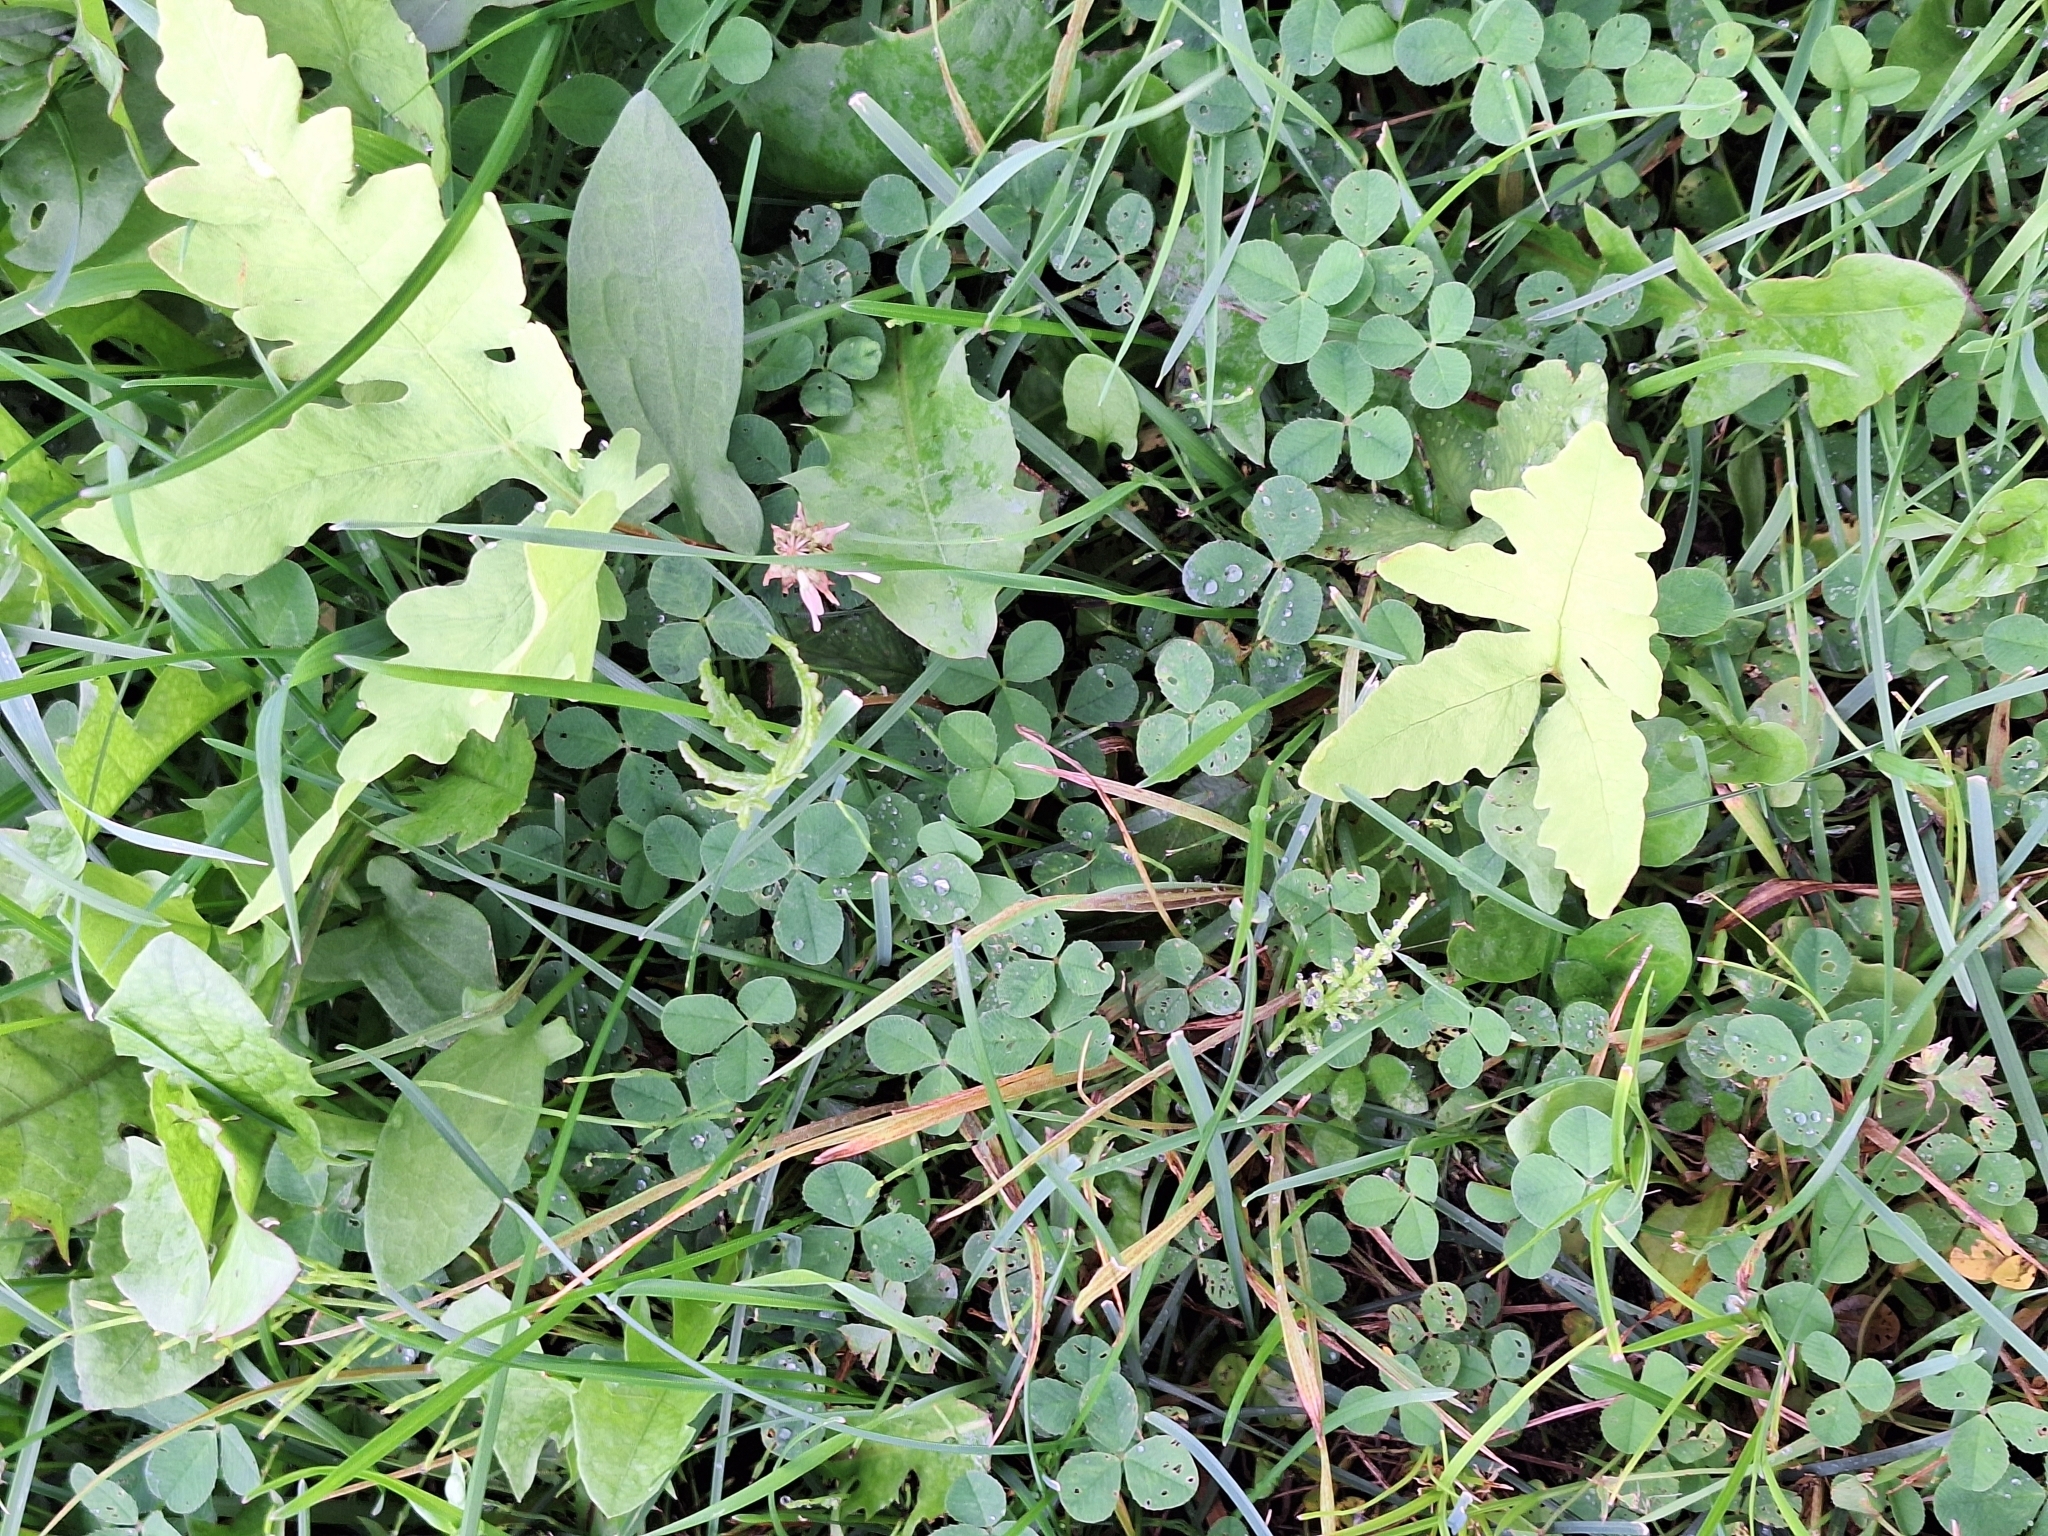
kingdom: Plantae
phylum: Tracheophyta
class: Polypodiopsida
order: Polypodiales
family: Onocleaceae
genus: Onoclea
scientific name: Onoclea sensibilis
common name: Sensitive fern
